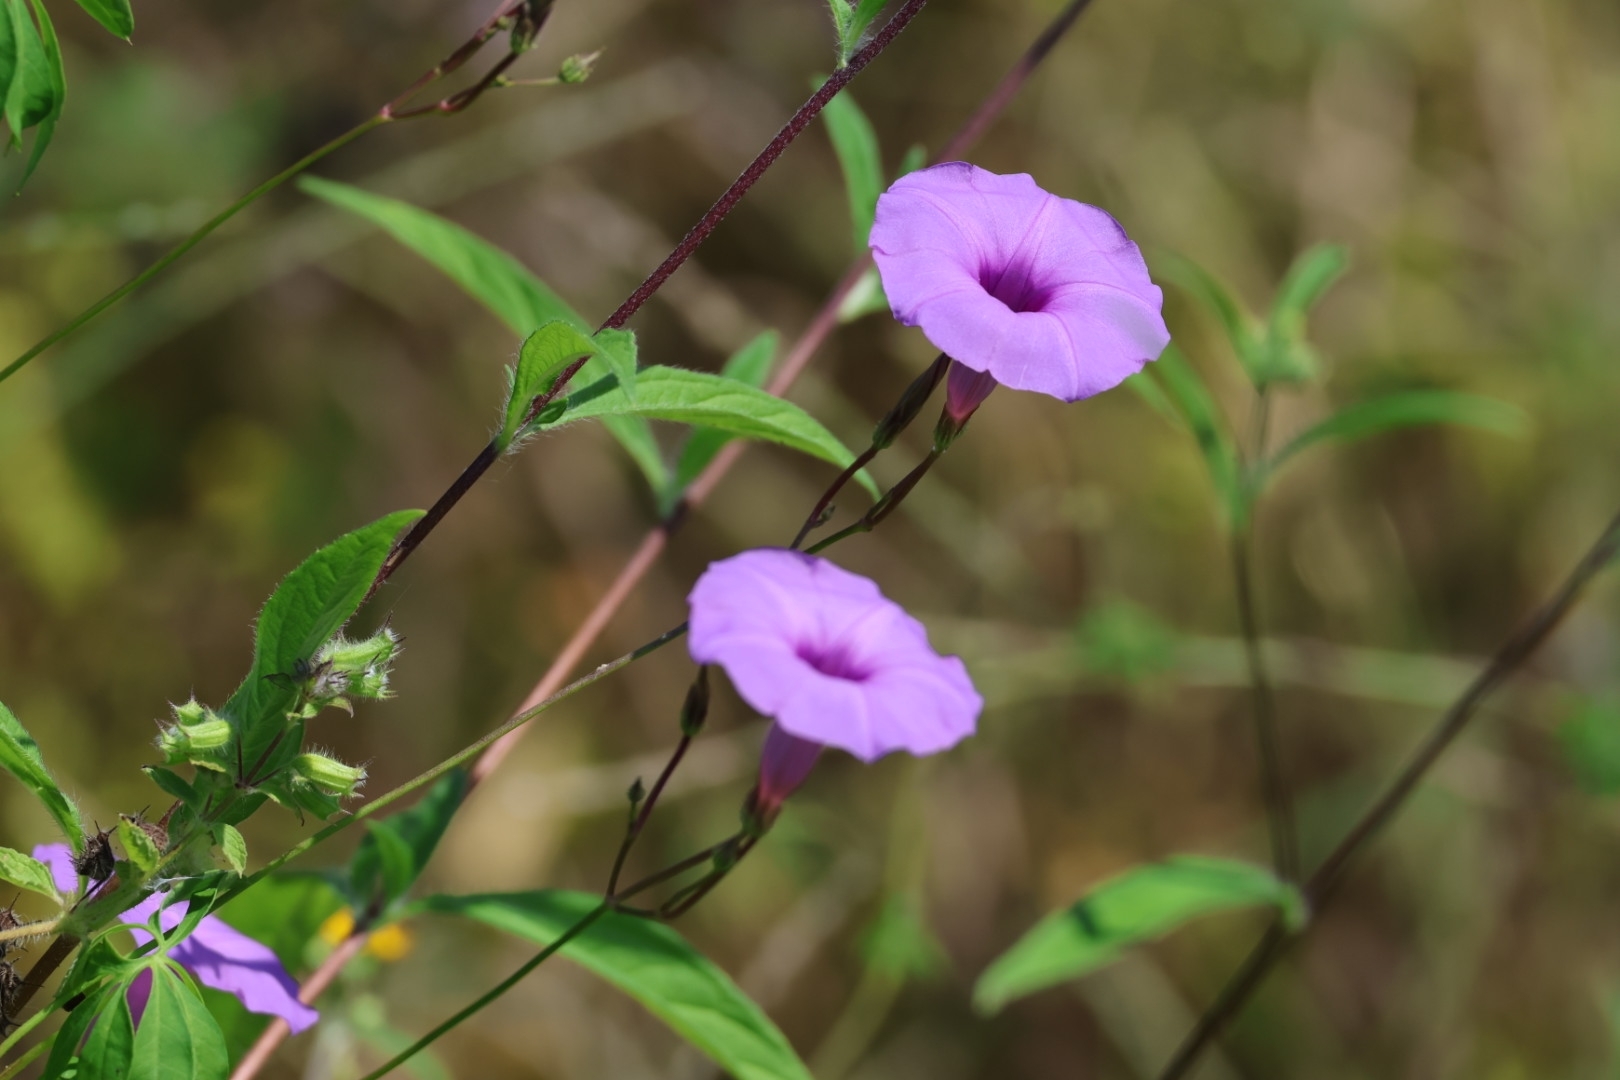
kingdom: Plantae
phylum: Tracheophyta
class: Magnoliopsida
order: Solanales
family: Convolvulaceae
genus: Ipomoea
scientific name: Ipomoea ternifolia
